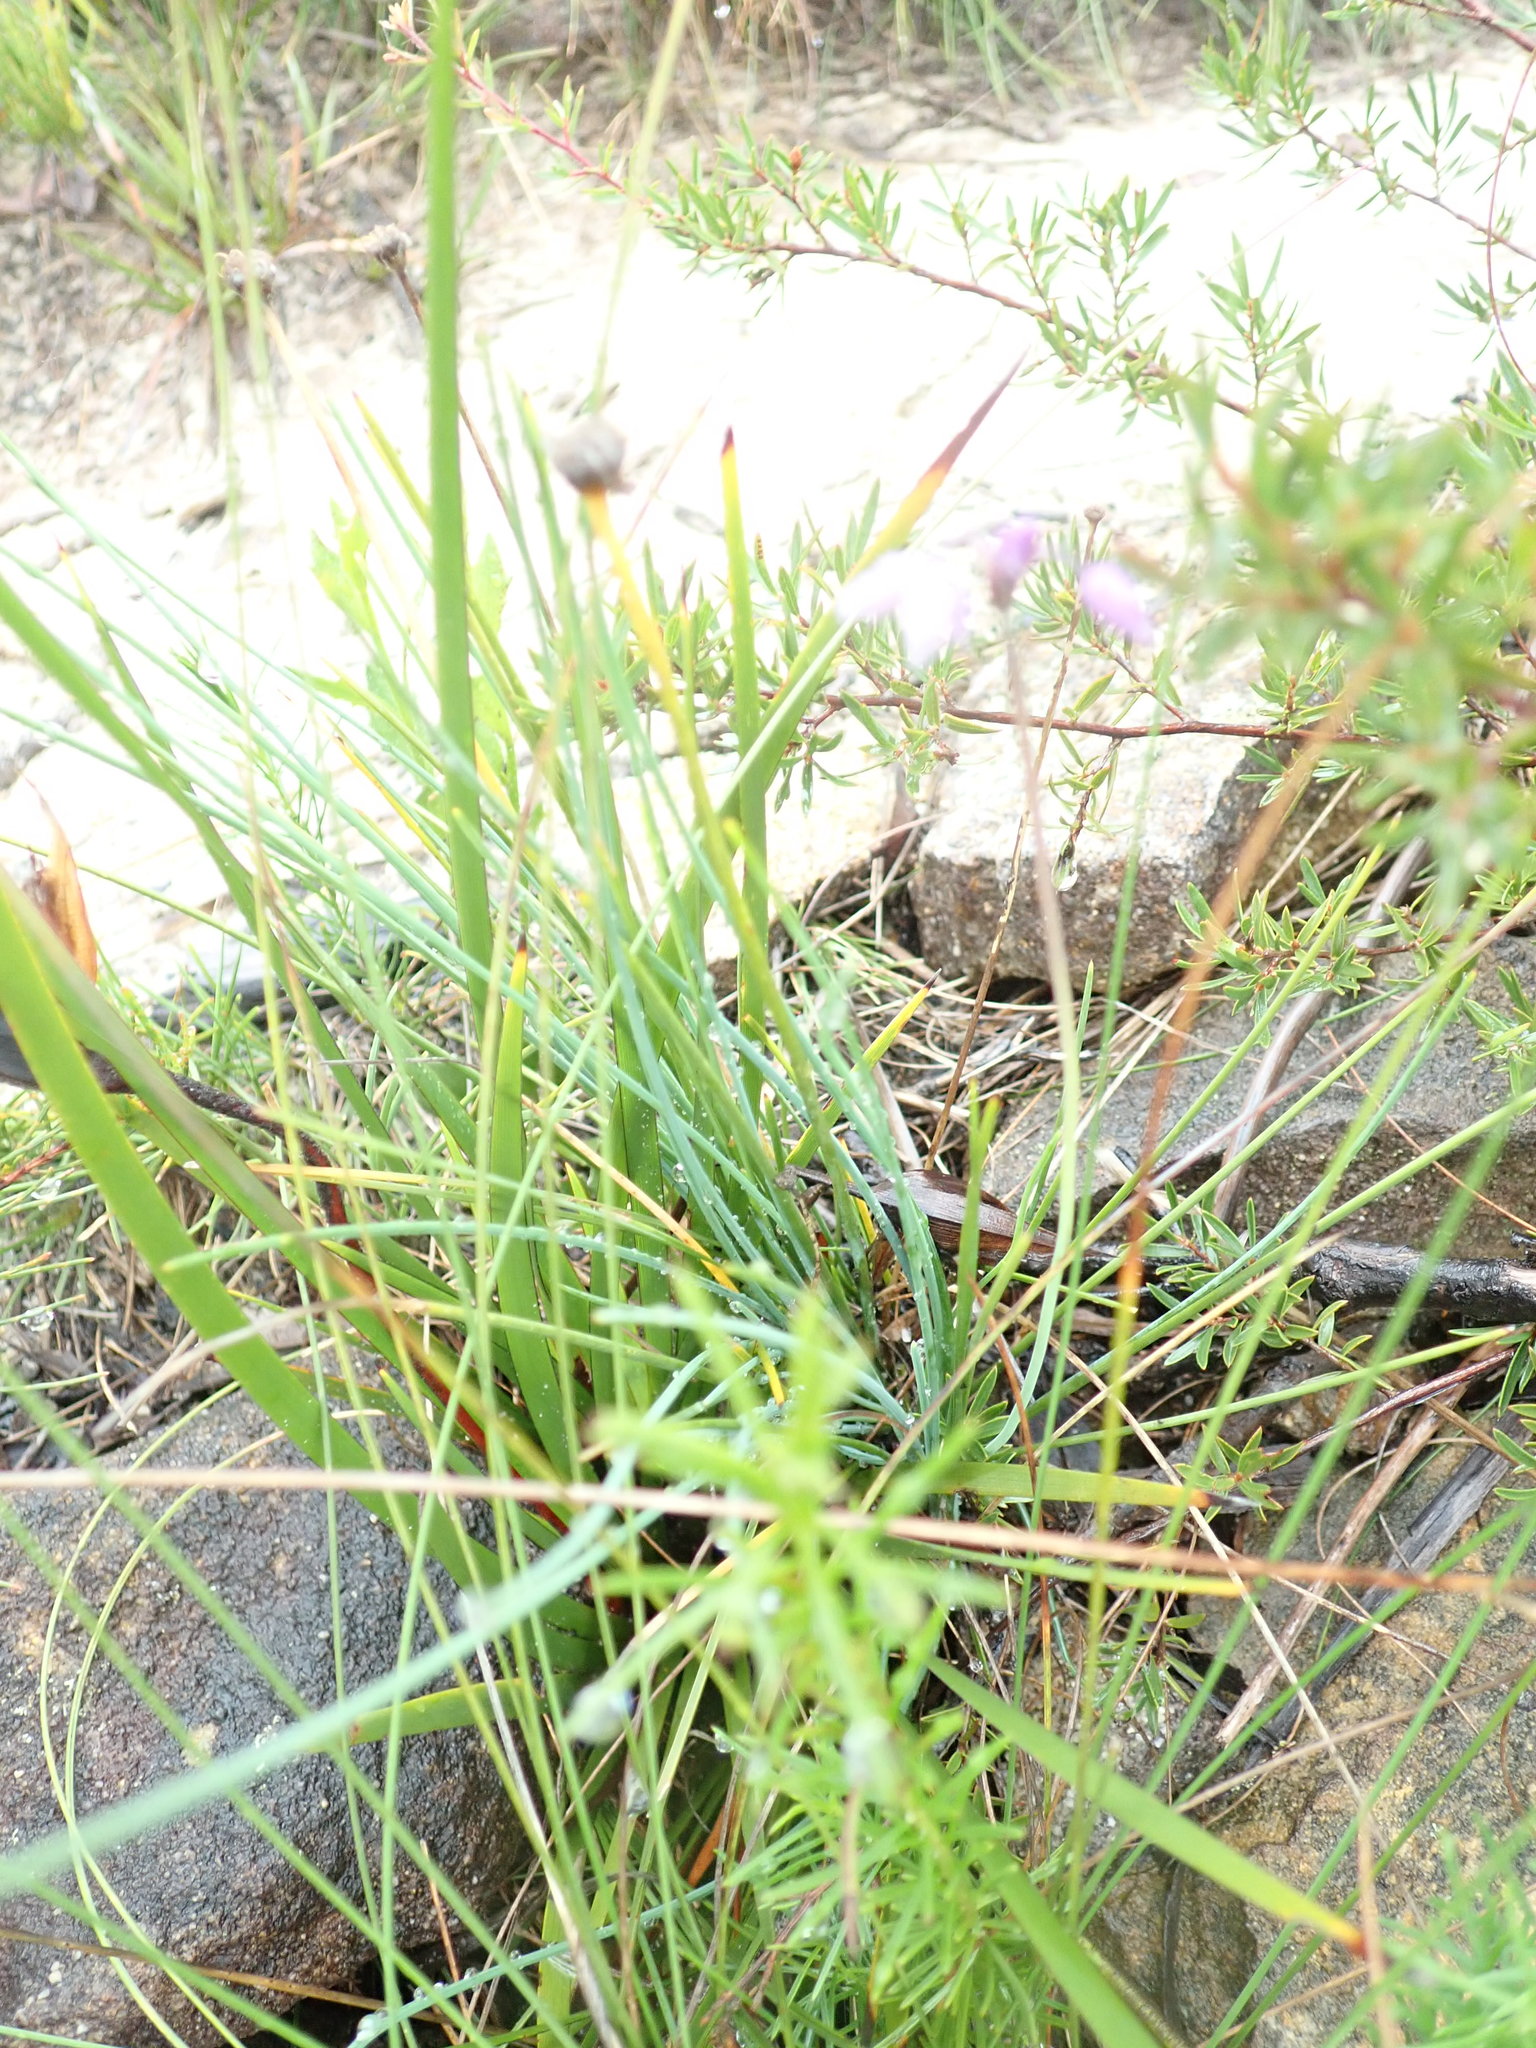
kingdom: Plantae
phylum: Tracheophyta
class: Liliopsida
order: Asparagales
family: Asparagaceae
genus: Sowerbaea
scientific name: Sowerbaea juncea
